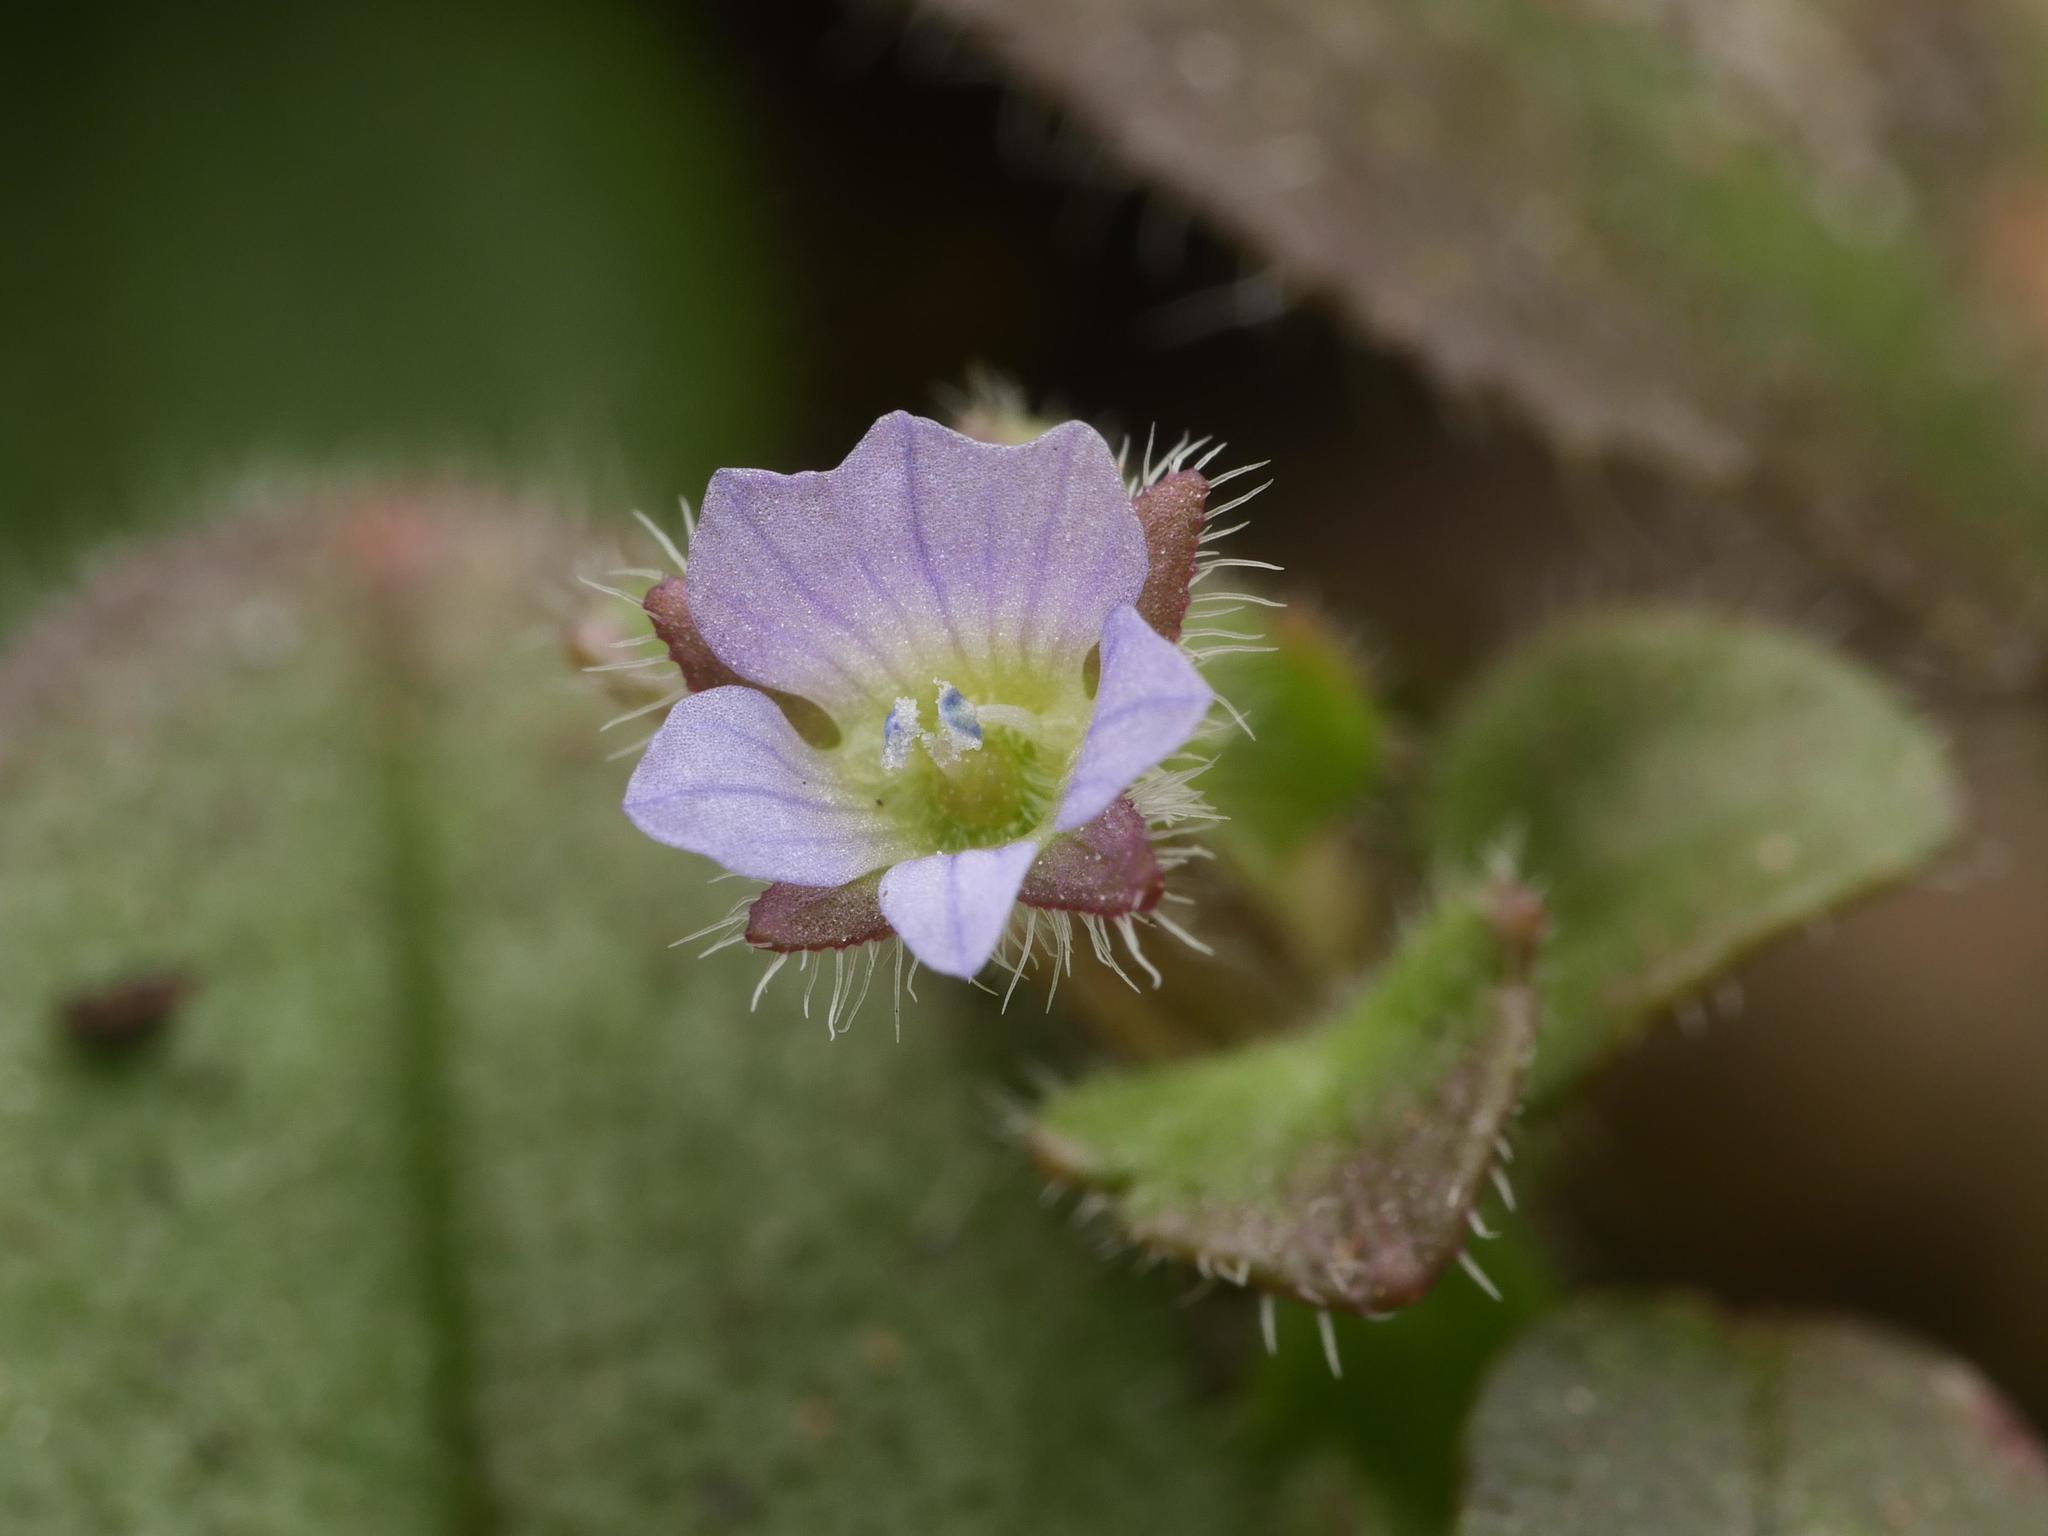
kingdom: Plantae
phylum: Tracheophyta
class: Magnoliopsida
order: Lamiales
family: Plantaginaceae
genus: Veronica
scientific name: Veronica sublobata
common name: False ivy-leaved speedwell
